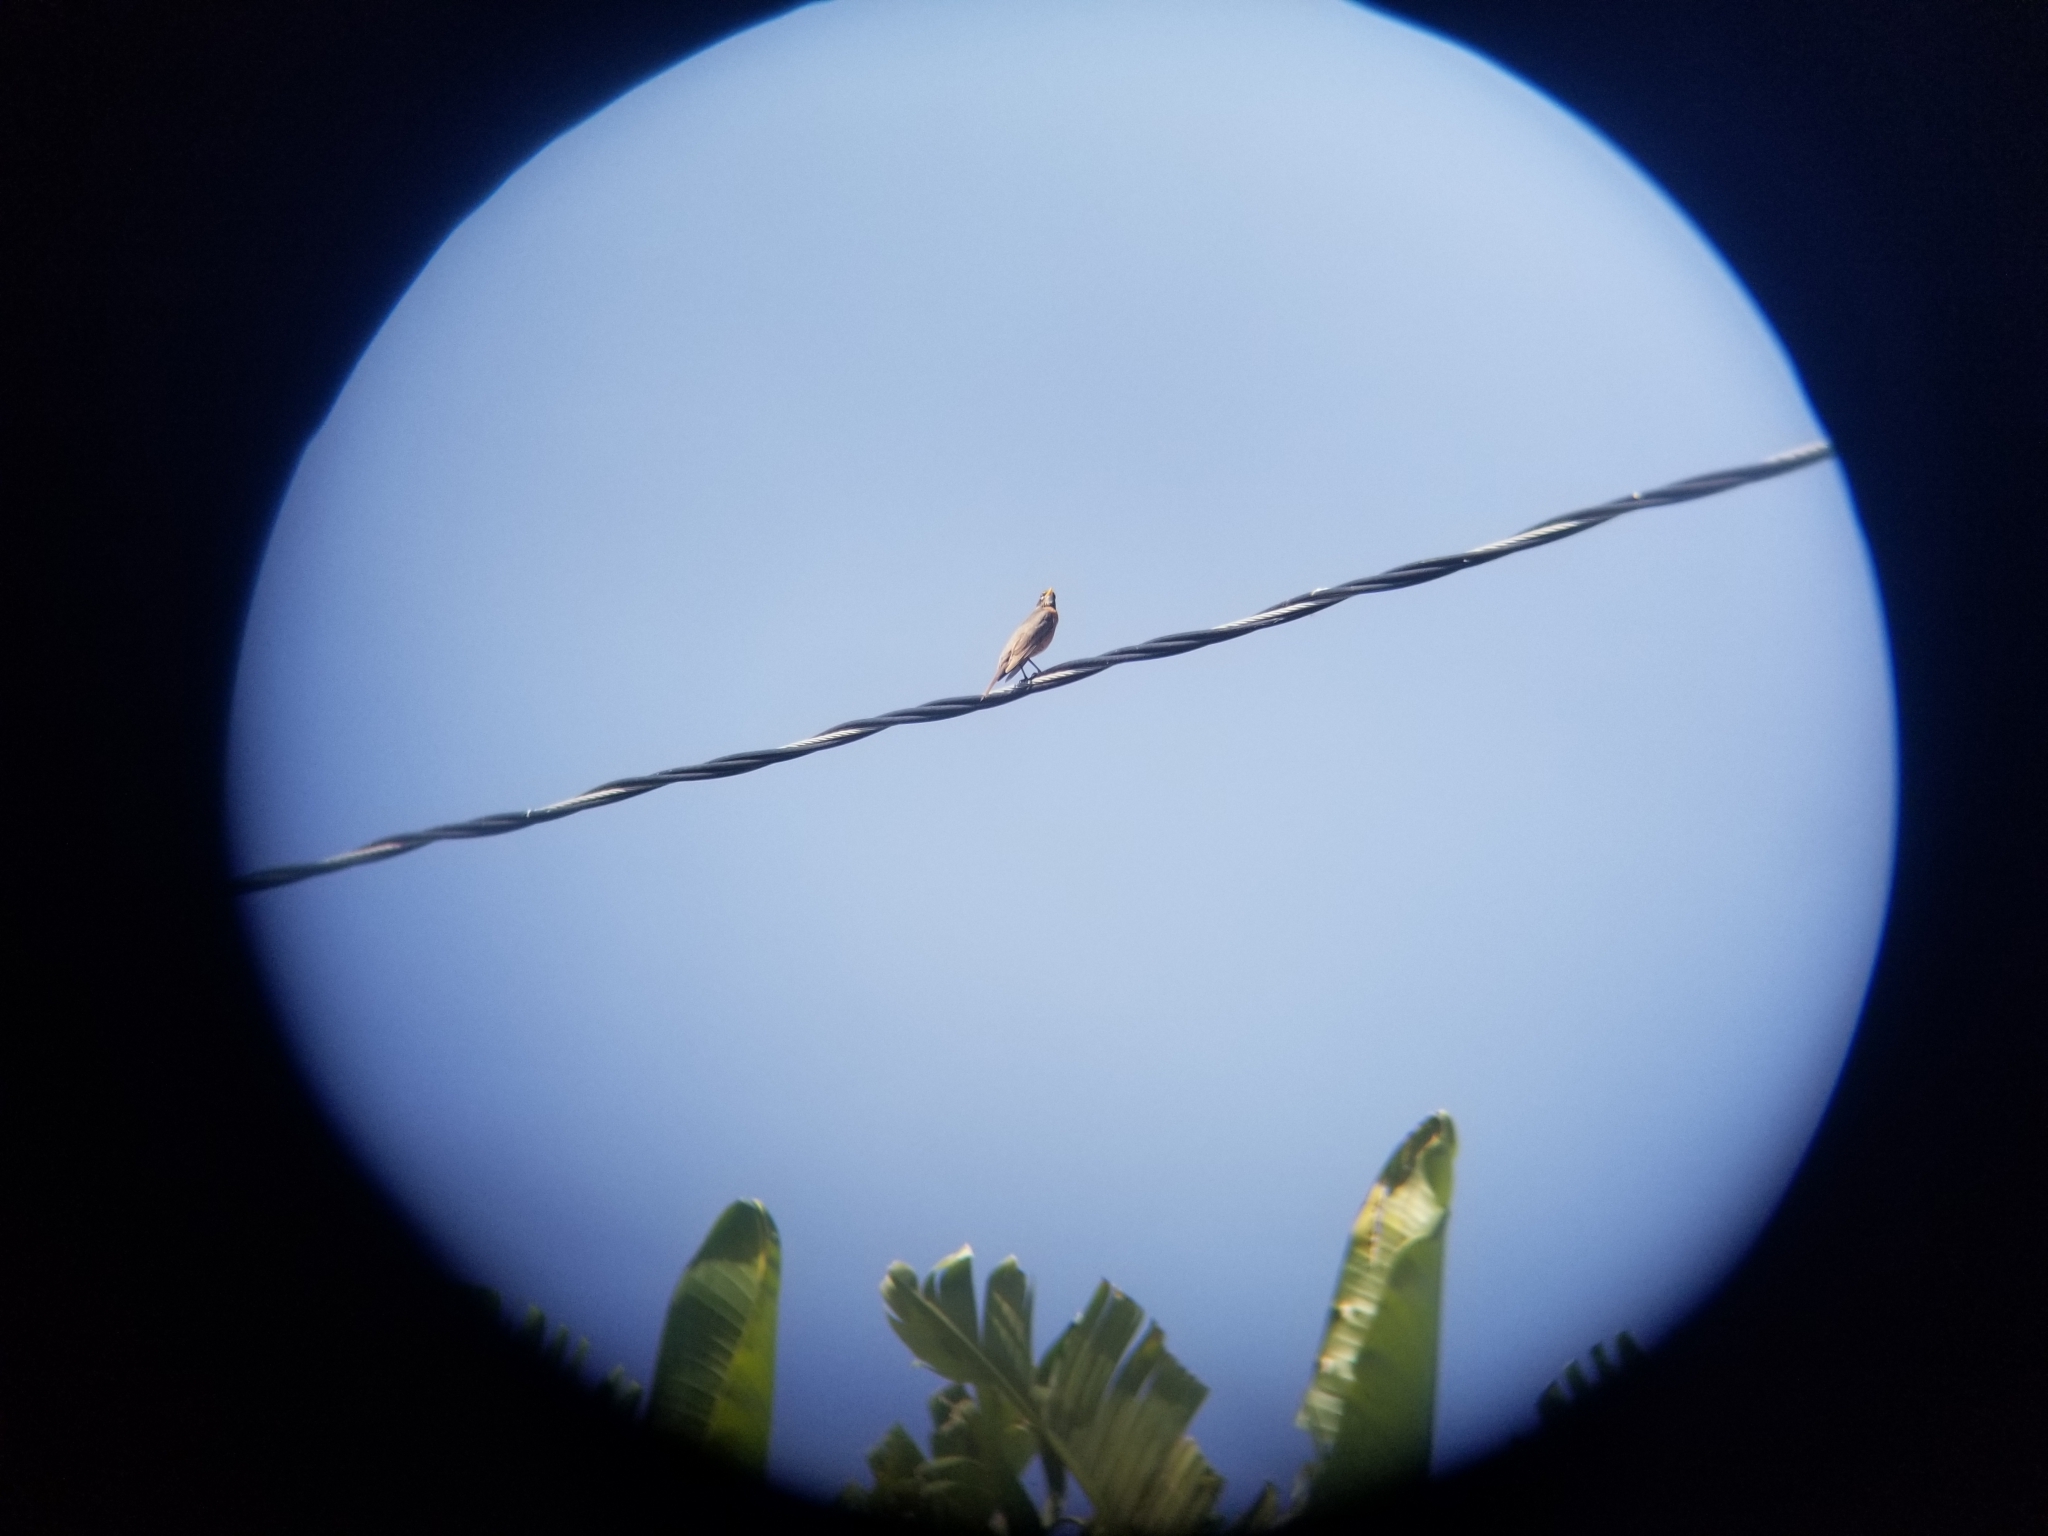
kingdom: Animalia
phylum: Chordata
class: Aves
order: Passeriformes
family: Turdidae
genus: Turdus
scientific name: Turdus migratorius
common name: American robin
